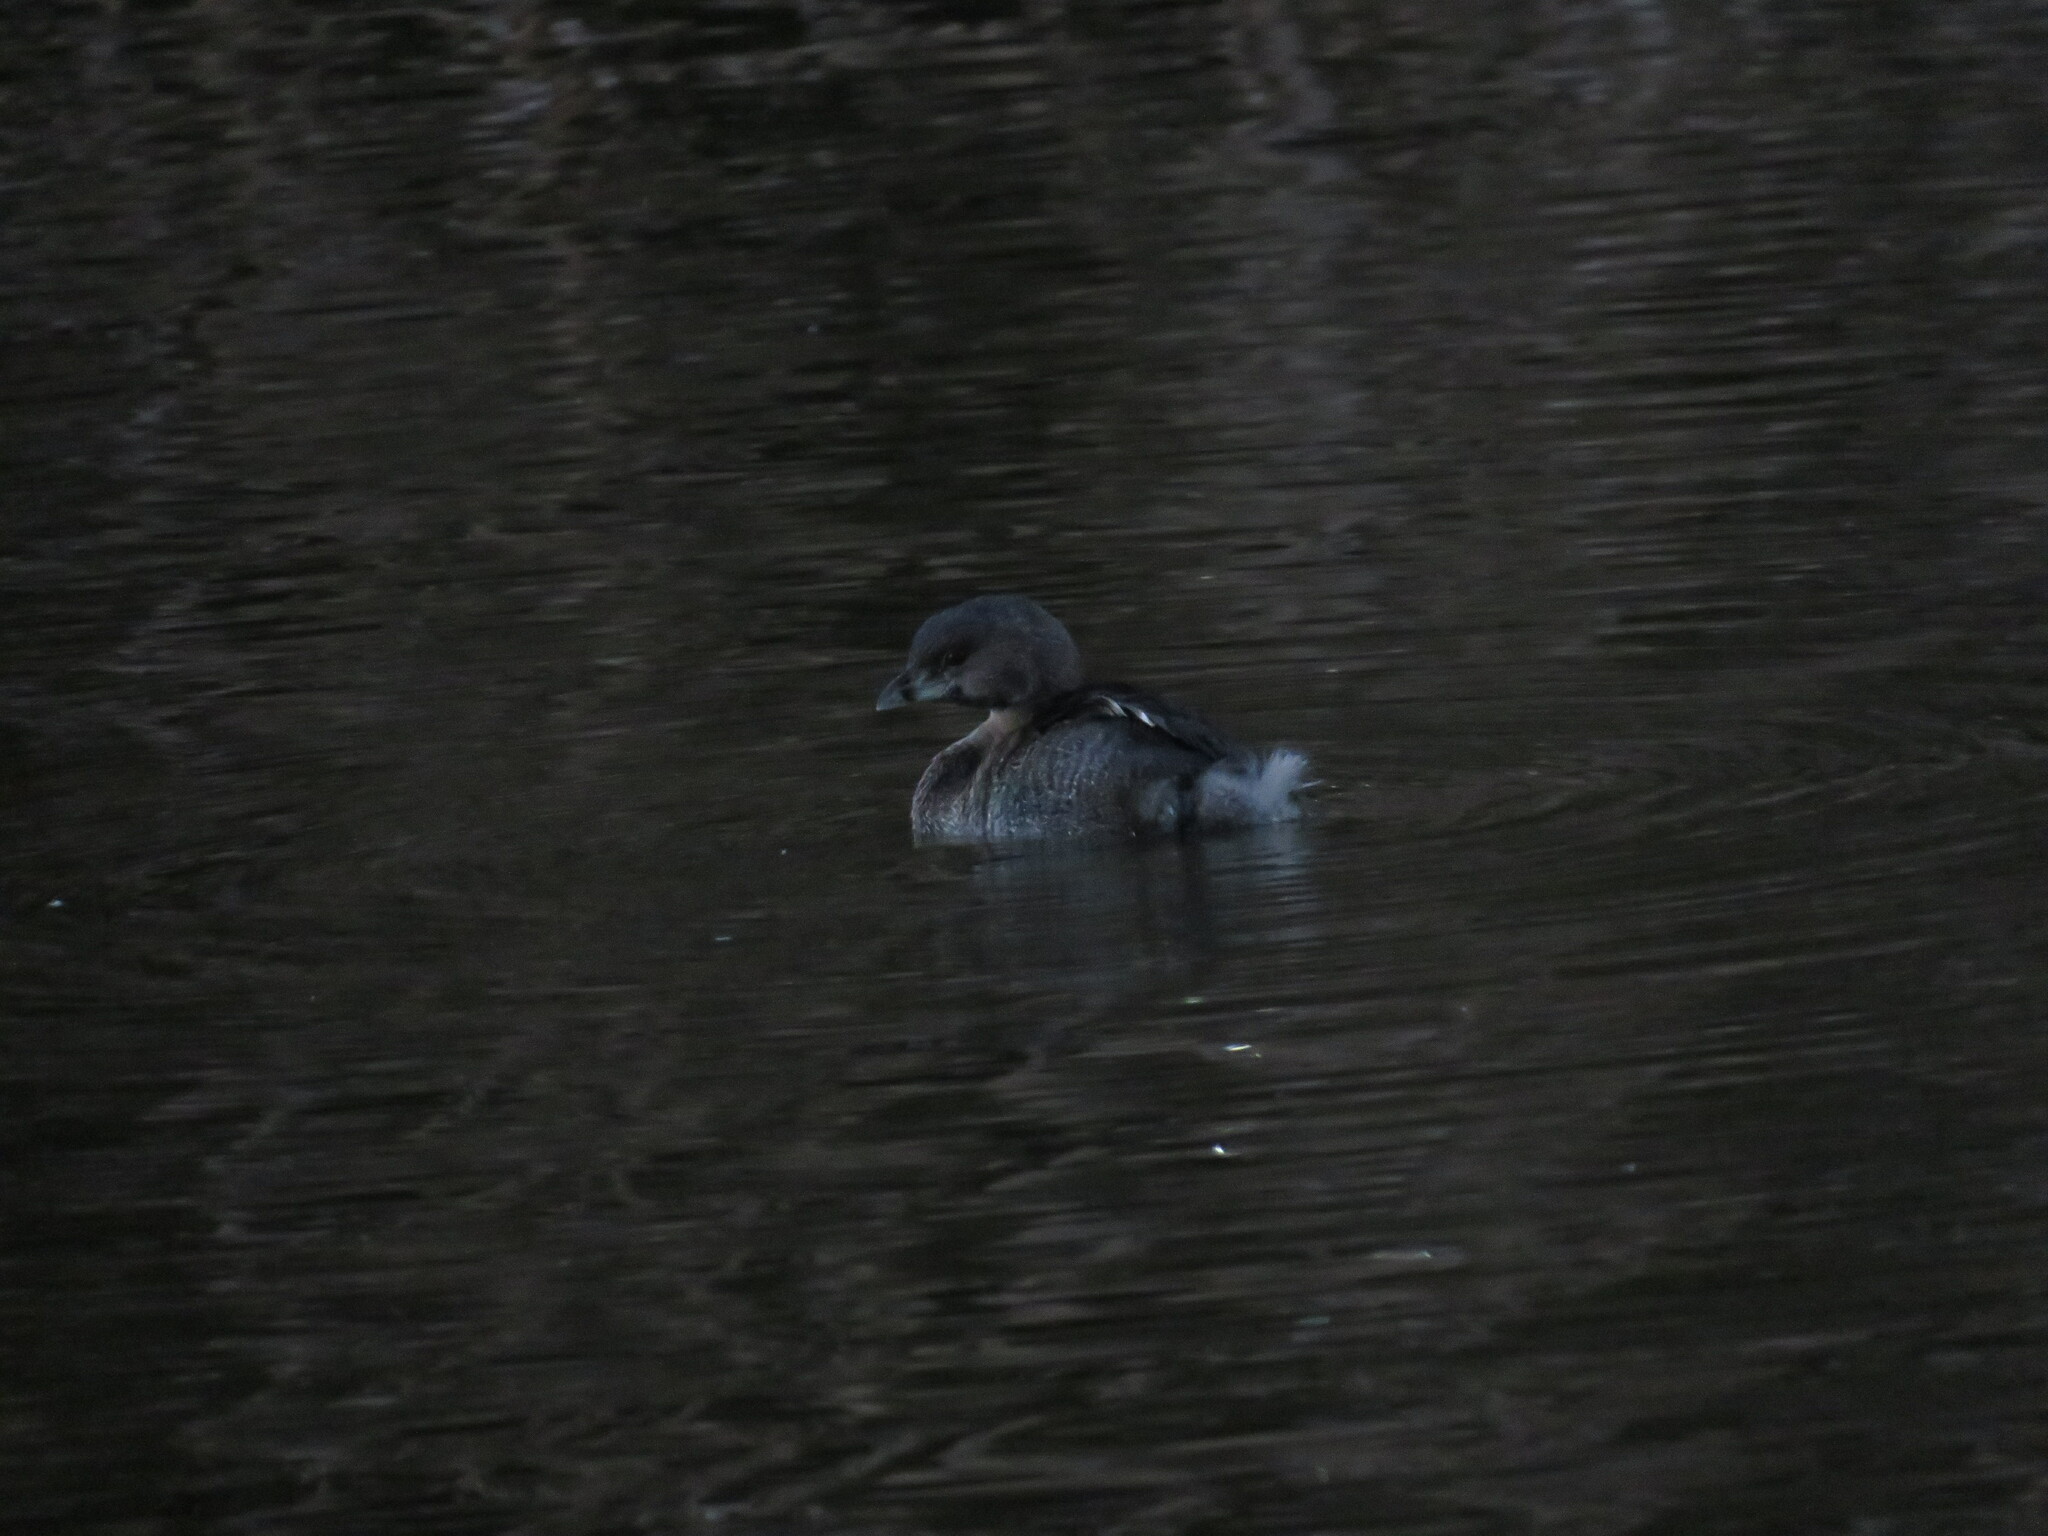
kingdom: Animalia
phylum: Chordata
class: Aves
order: Podicipediformes
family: Podicipedidae
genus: Podilymbus
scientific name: Podilymbus podiceps
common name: Pied-billed grebe
